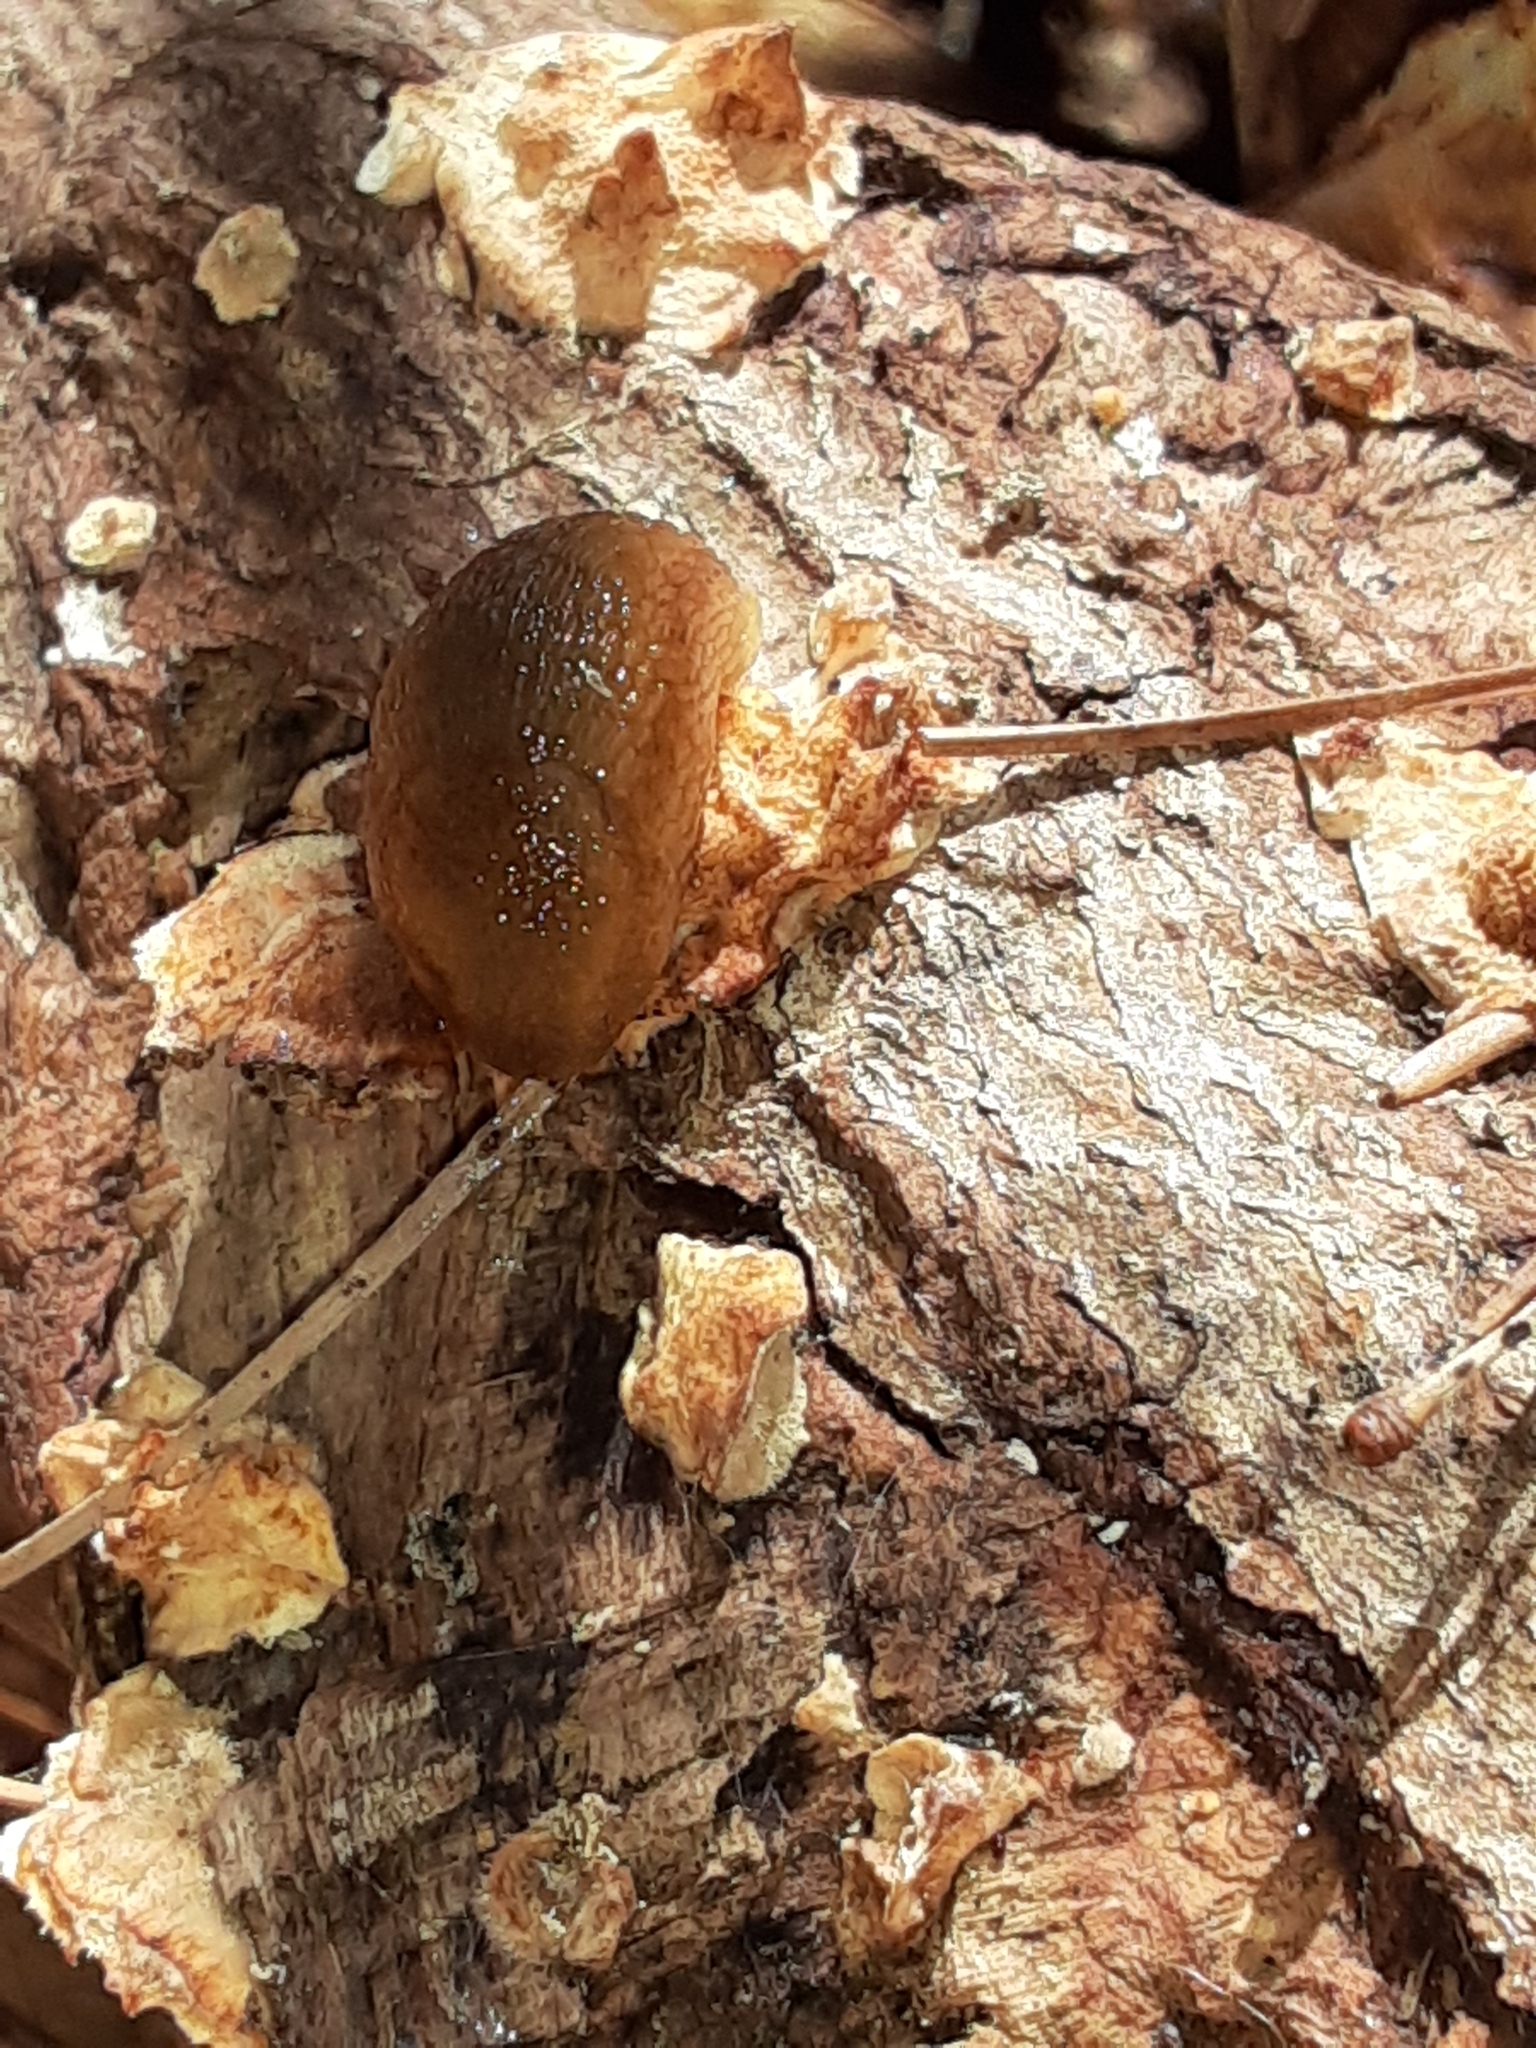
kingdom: Animalia
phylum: Mollusca
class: Gastropoda
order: Stylommatophora
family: Arionidae
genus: Arion
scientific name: Arion subfuscus
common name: Dusky arion
